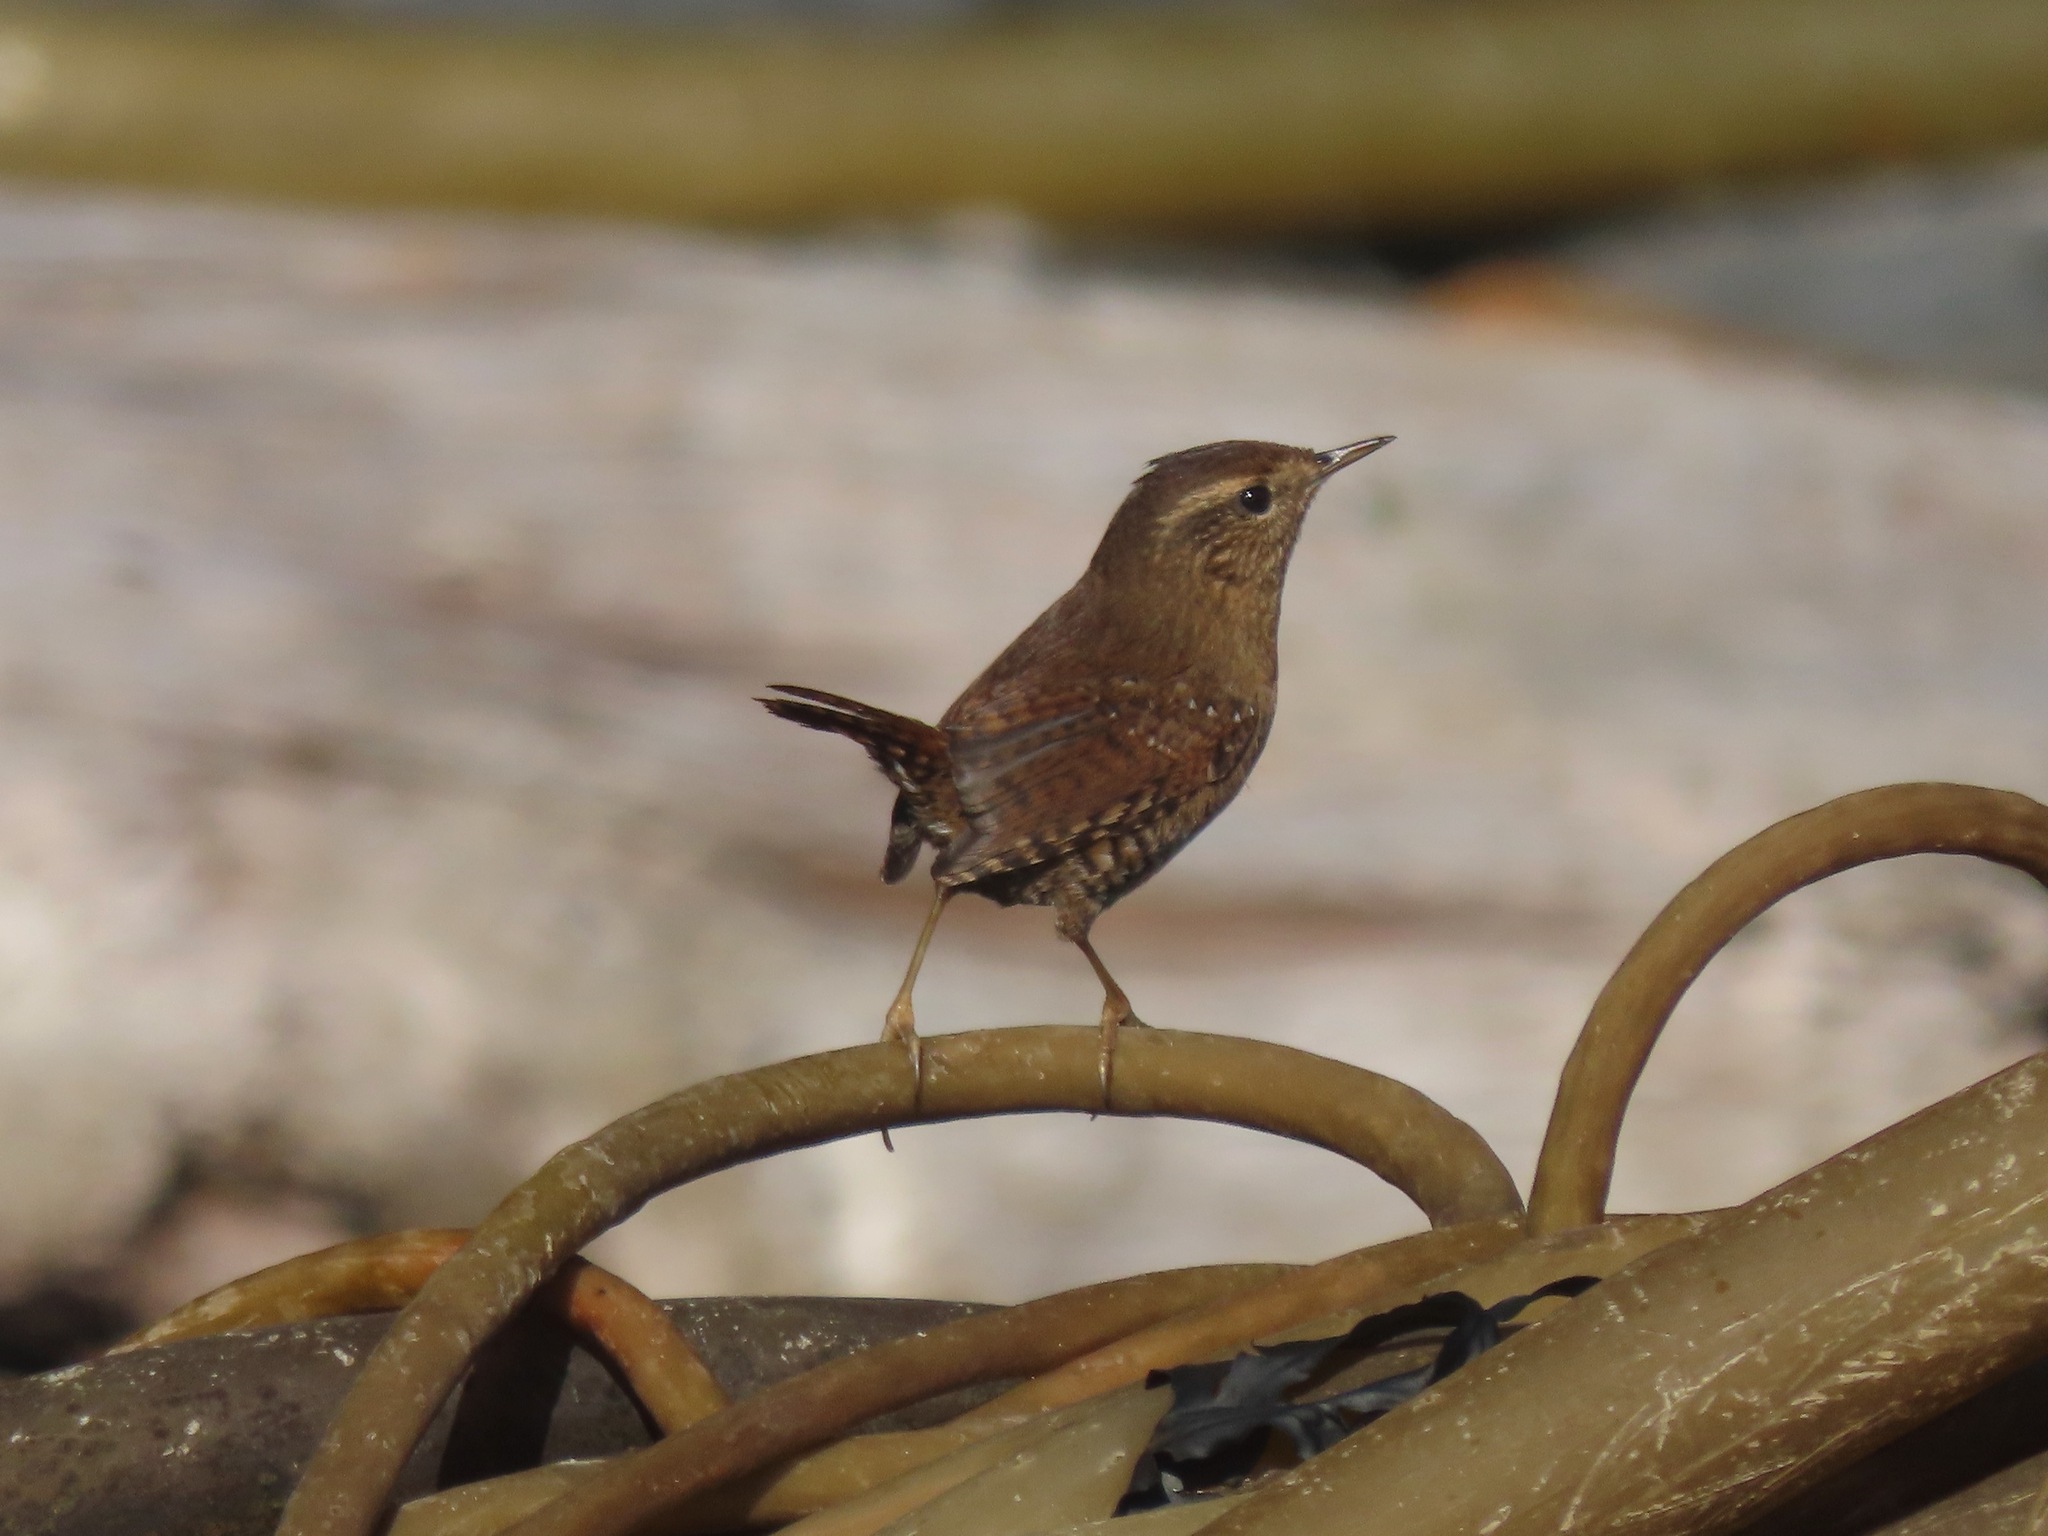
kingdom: Animalia
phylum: Chordata
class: Aves
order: Passeriformes
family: Troglodytidae
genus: Troglodytes
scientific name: Troglodytes pacificus
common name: Pacific wren
